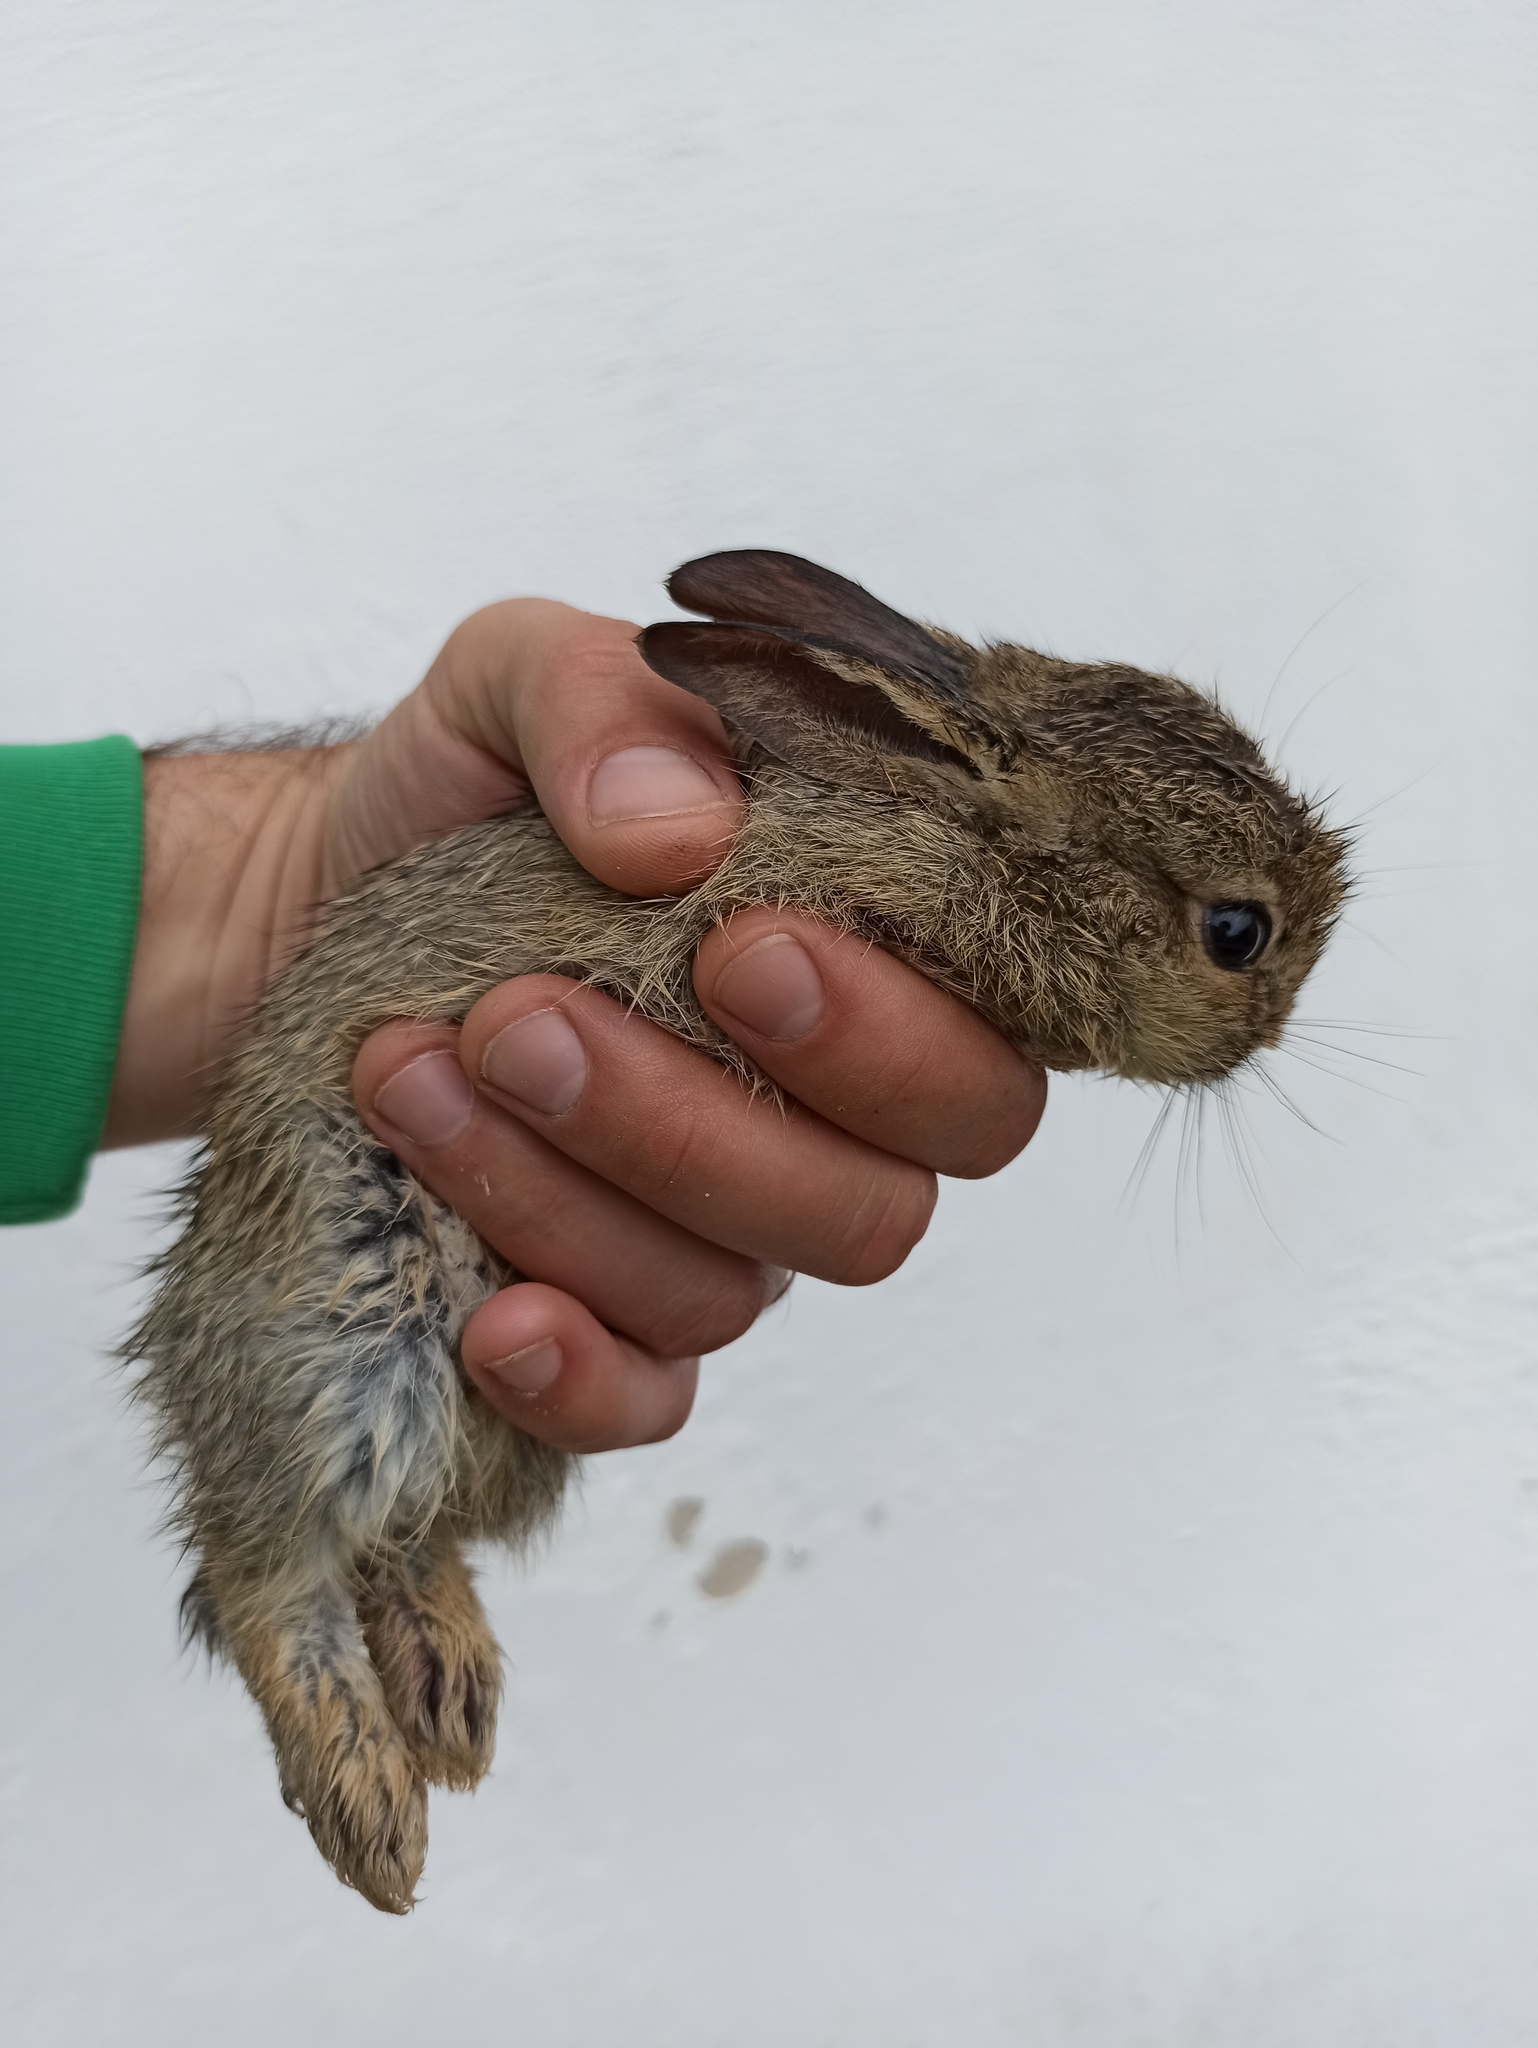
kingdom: Animalia
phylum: Chordata
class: Mammalia
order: Lagomorpha
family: Leporidae
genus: Oryctolagus
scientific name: Oryctolagus cuniculus
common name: European rabbit
